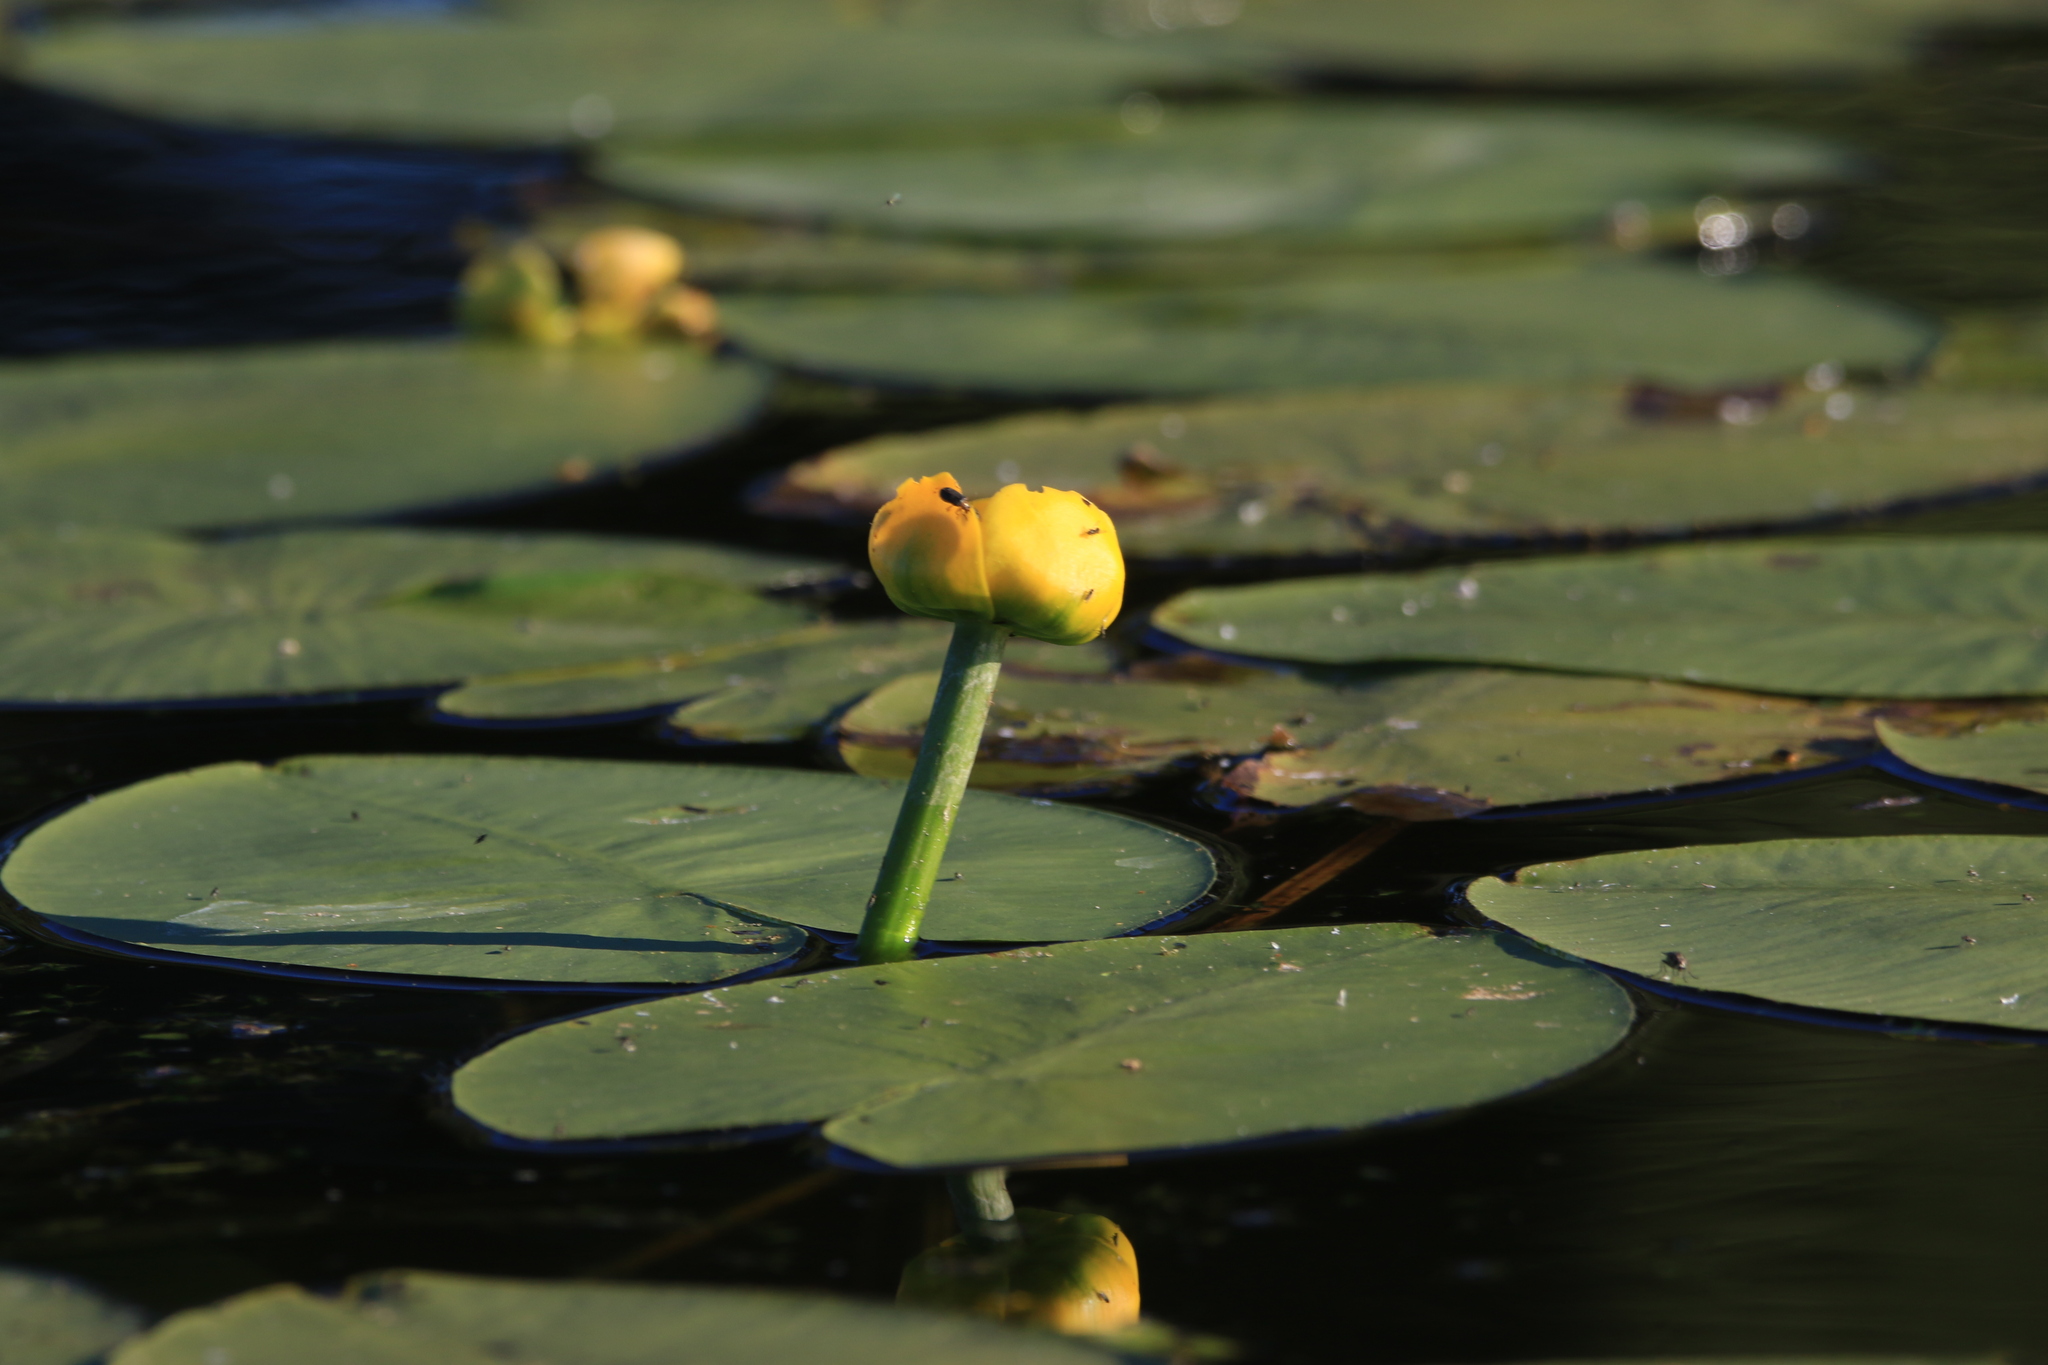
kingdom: Plantae
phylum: Tracheophyta
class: Magnoliopsida
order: Nymphaeales
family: Nymphaeaceae
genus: Nuphar
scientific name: Nuphar pumila
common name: Least water-lily
